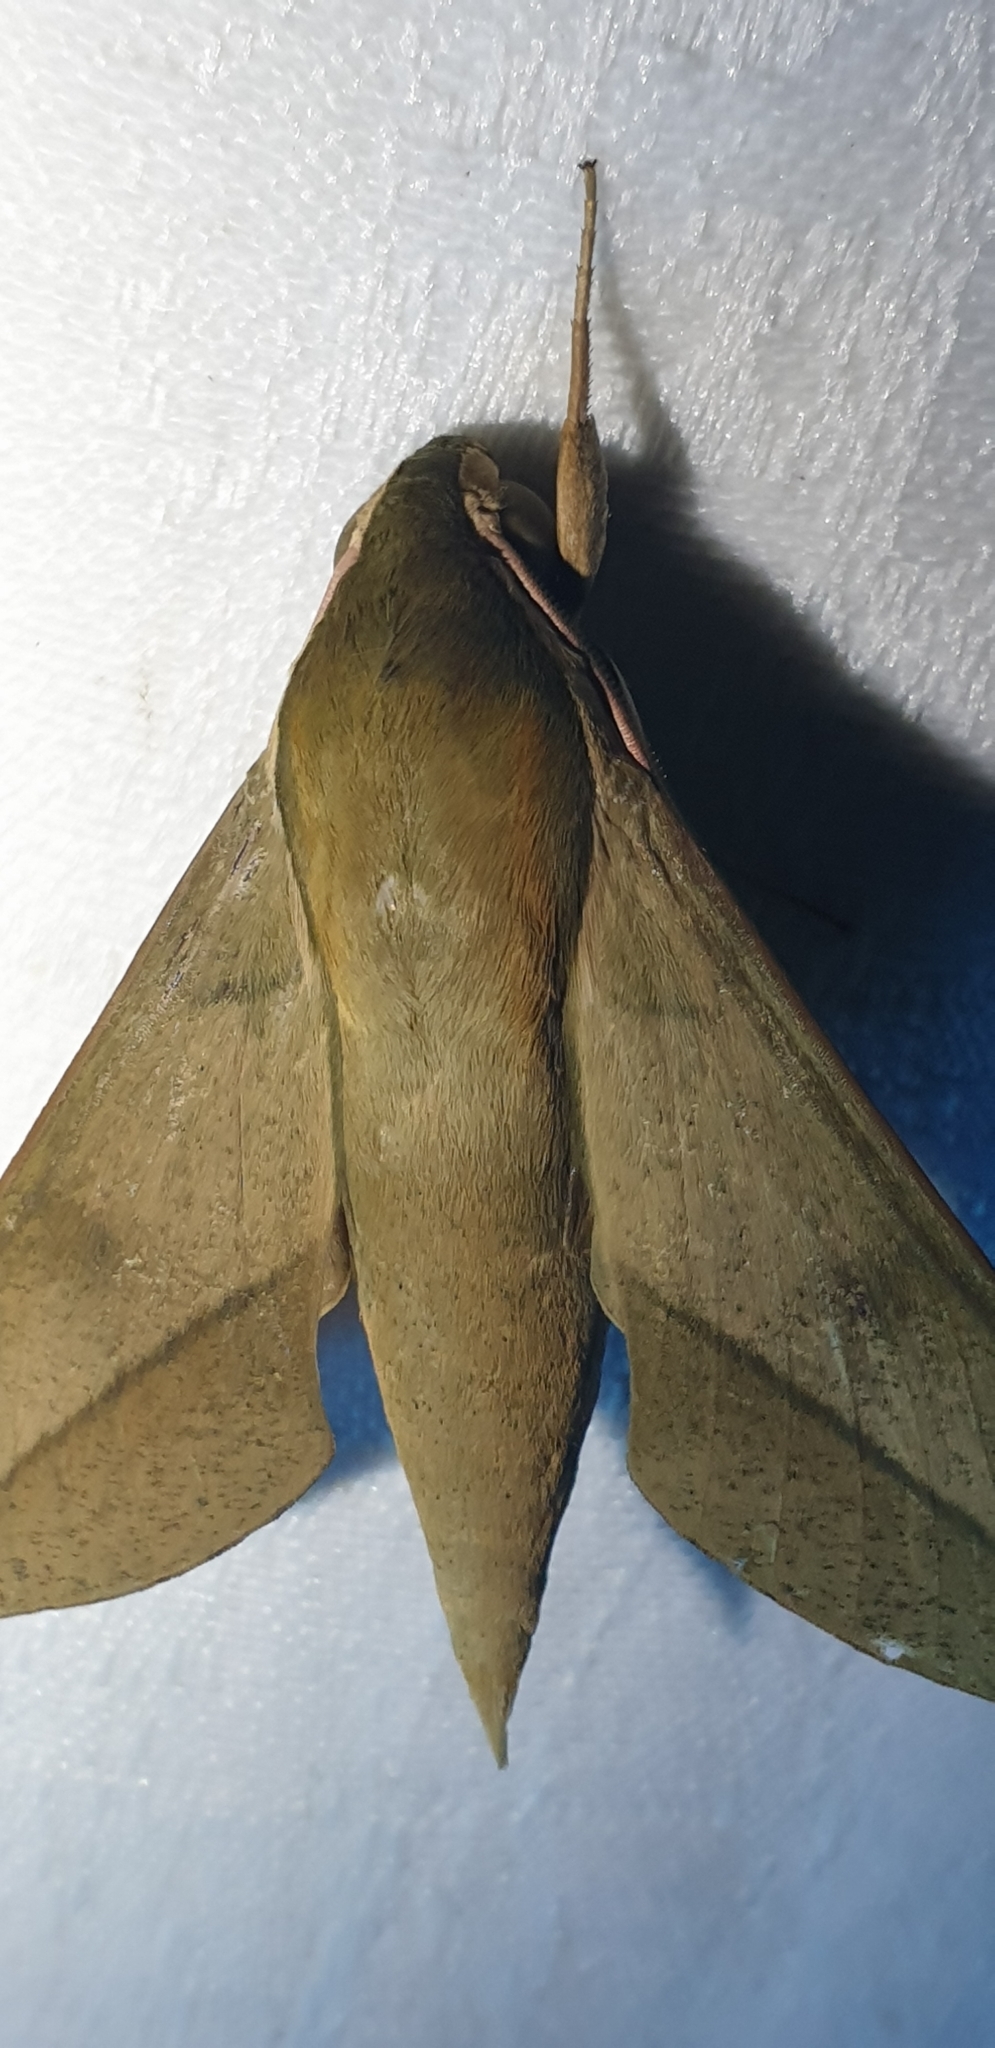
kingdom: Animalia
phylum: Arthropoda
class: Insecta
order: Lepidoptera
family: Sphingidae
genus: Theretra
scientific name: Theretra celata
